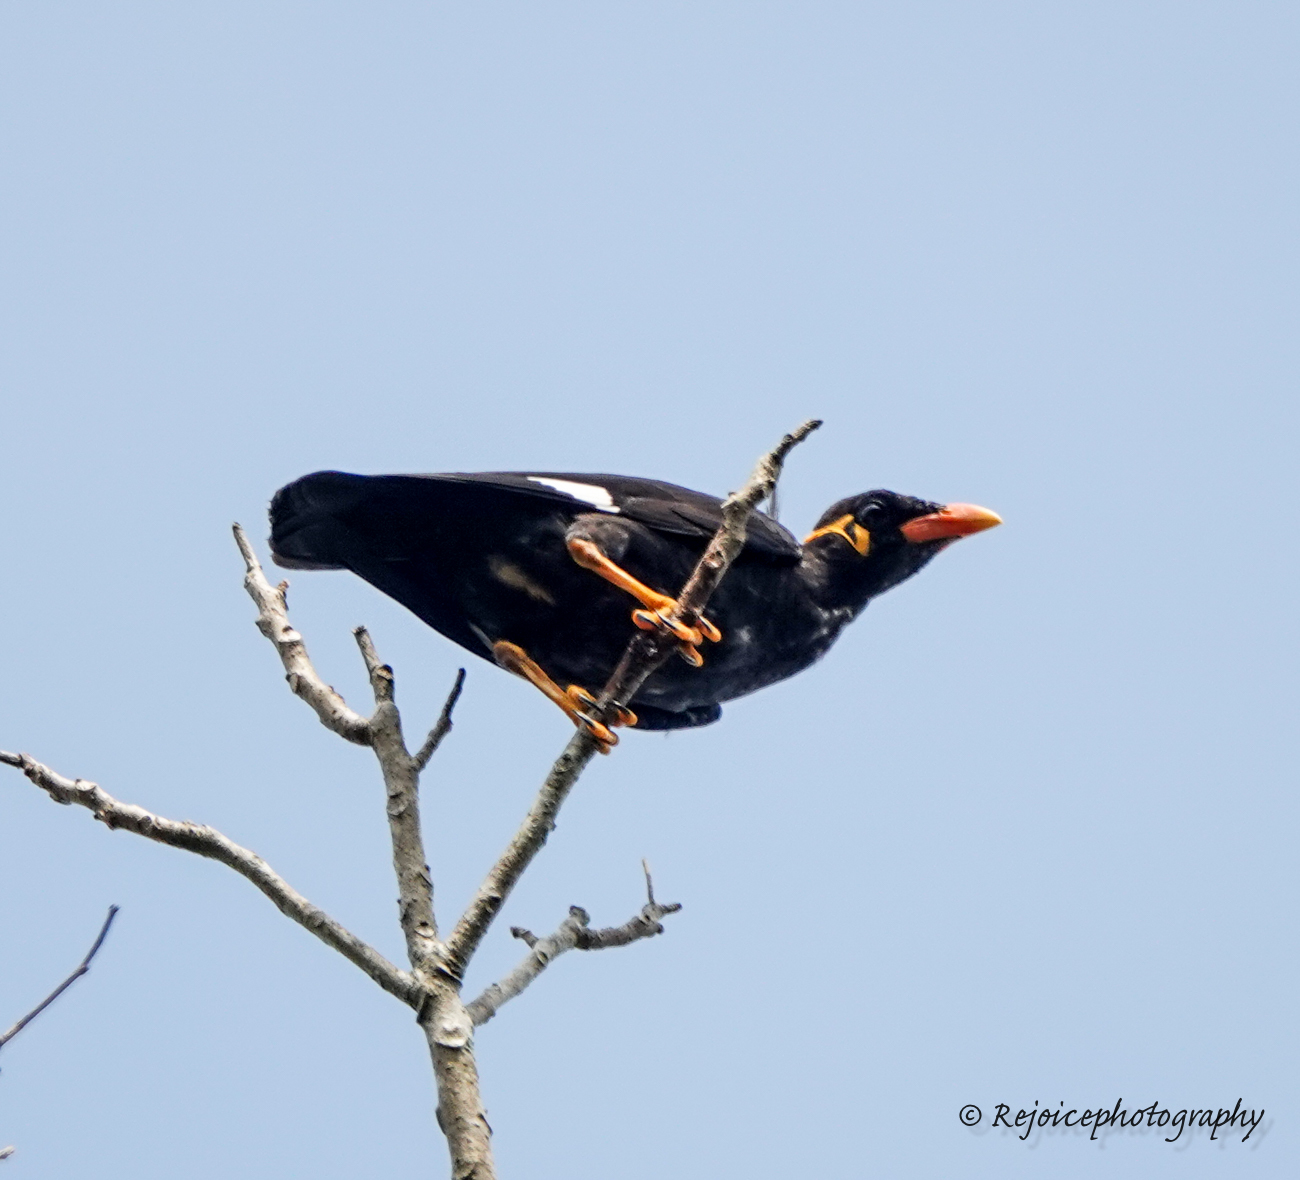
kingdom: Animalia
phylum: Chordata
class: Aves
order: Passeriformes
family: Sturnidae
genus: Gracula
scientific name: Gracula religiosa
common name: Common hill myna
